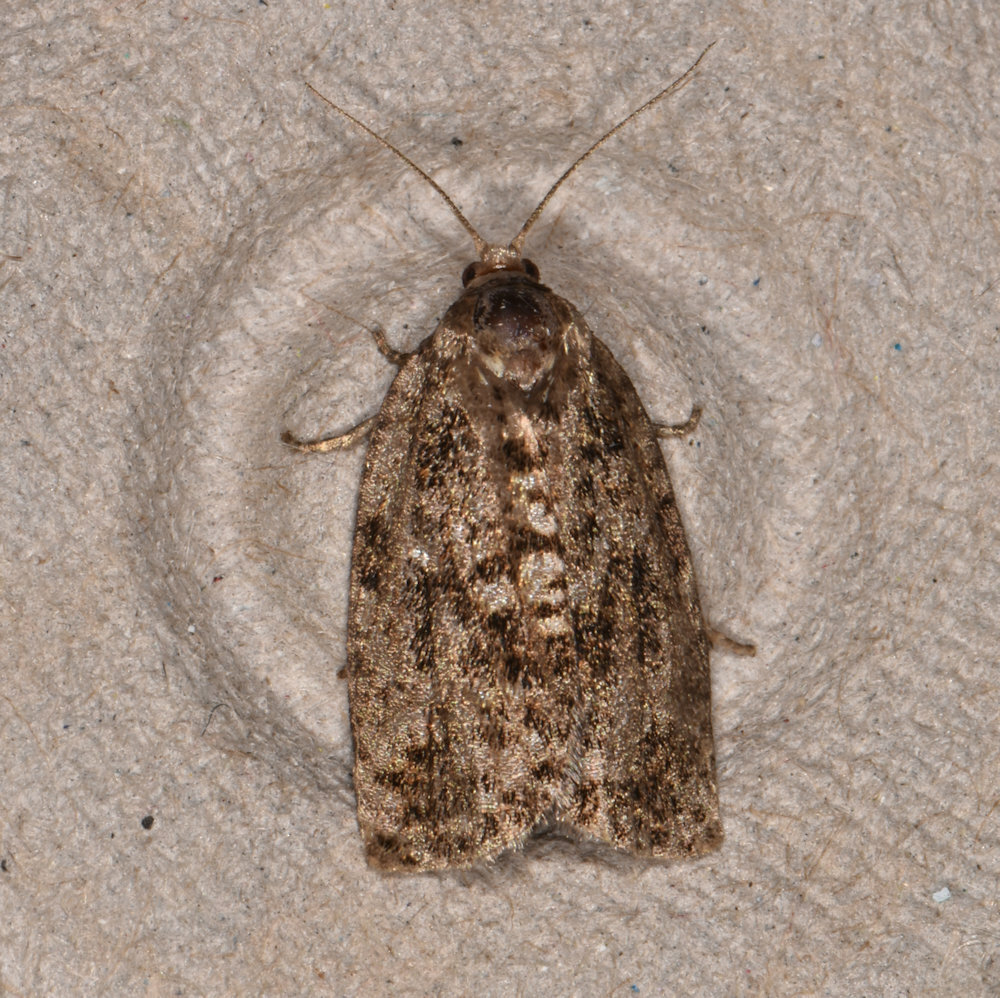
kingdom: Animalia
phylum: Arthropoda
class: Insecta
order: Lepidoptera
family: Tortricidae
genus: Choristoneura
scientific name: Choristoneura fumiferana
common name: Spruce budworm
